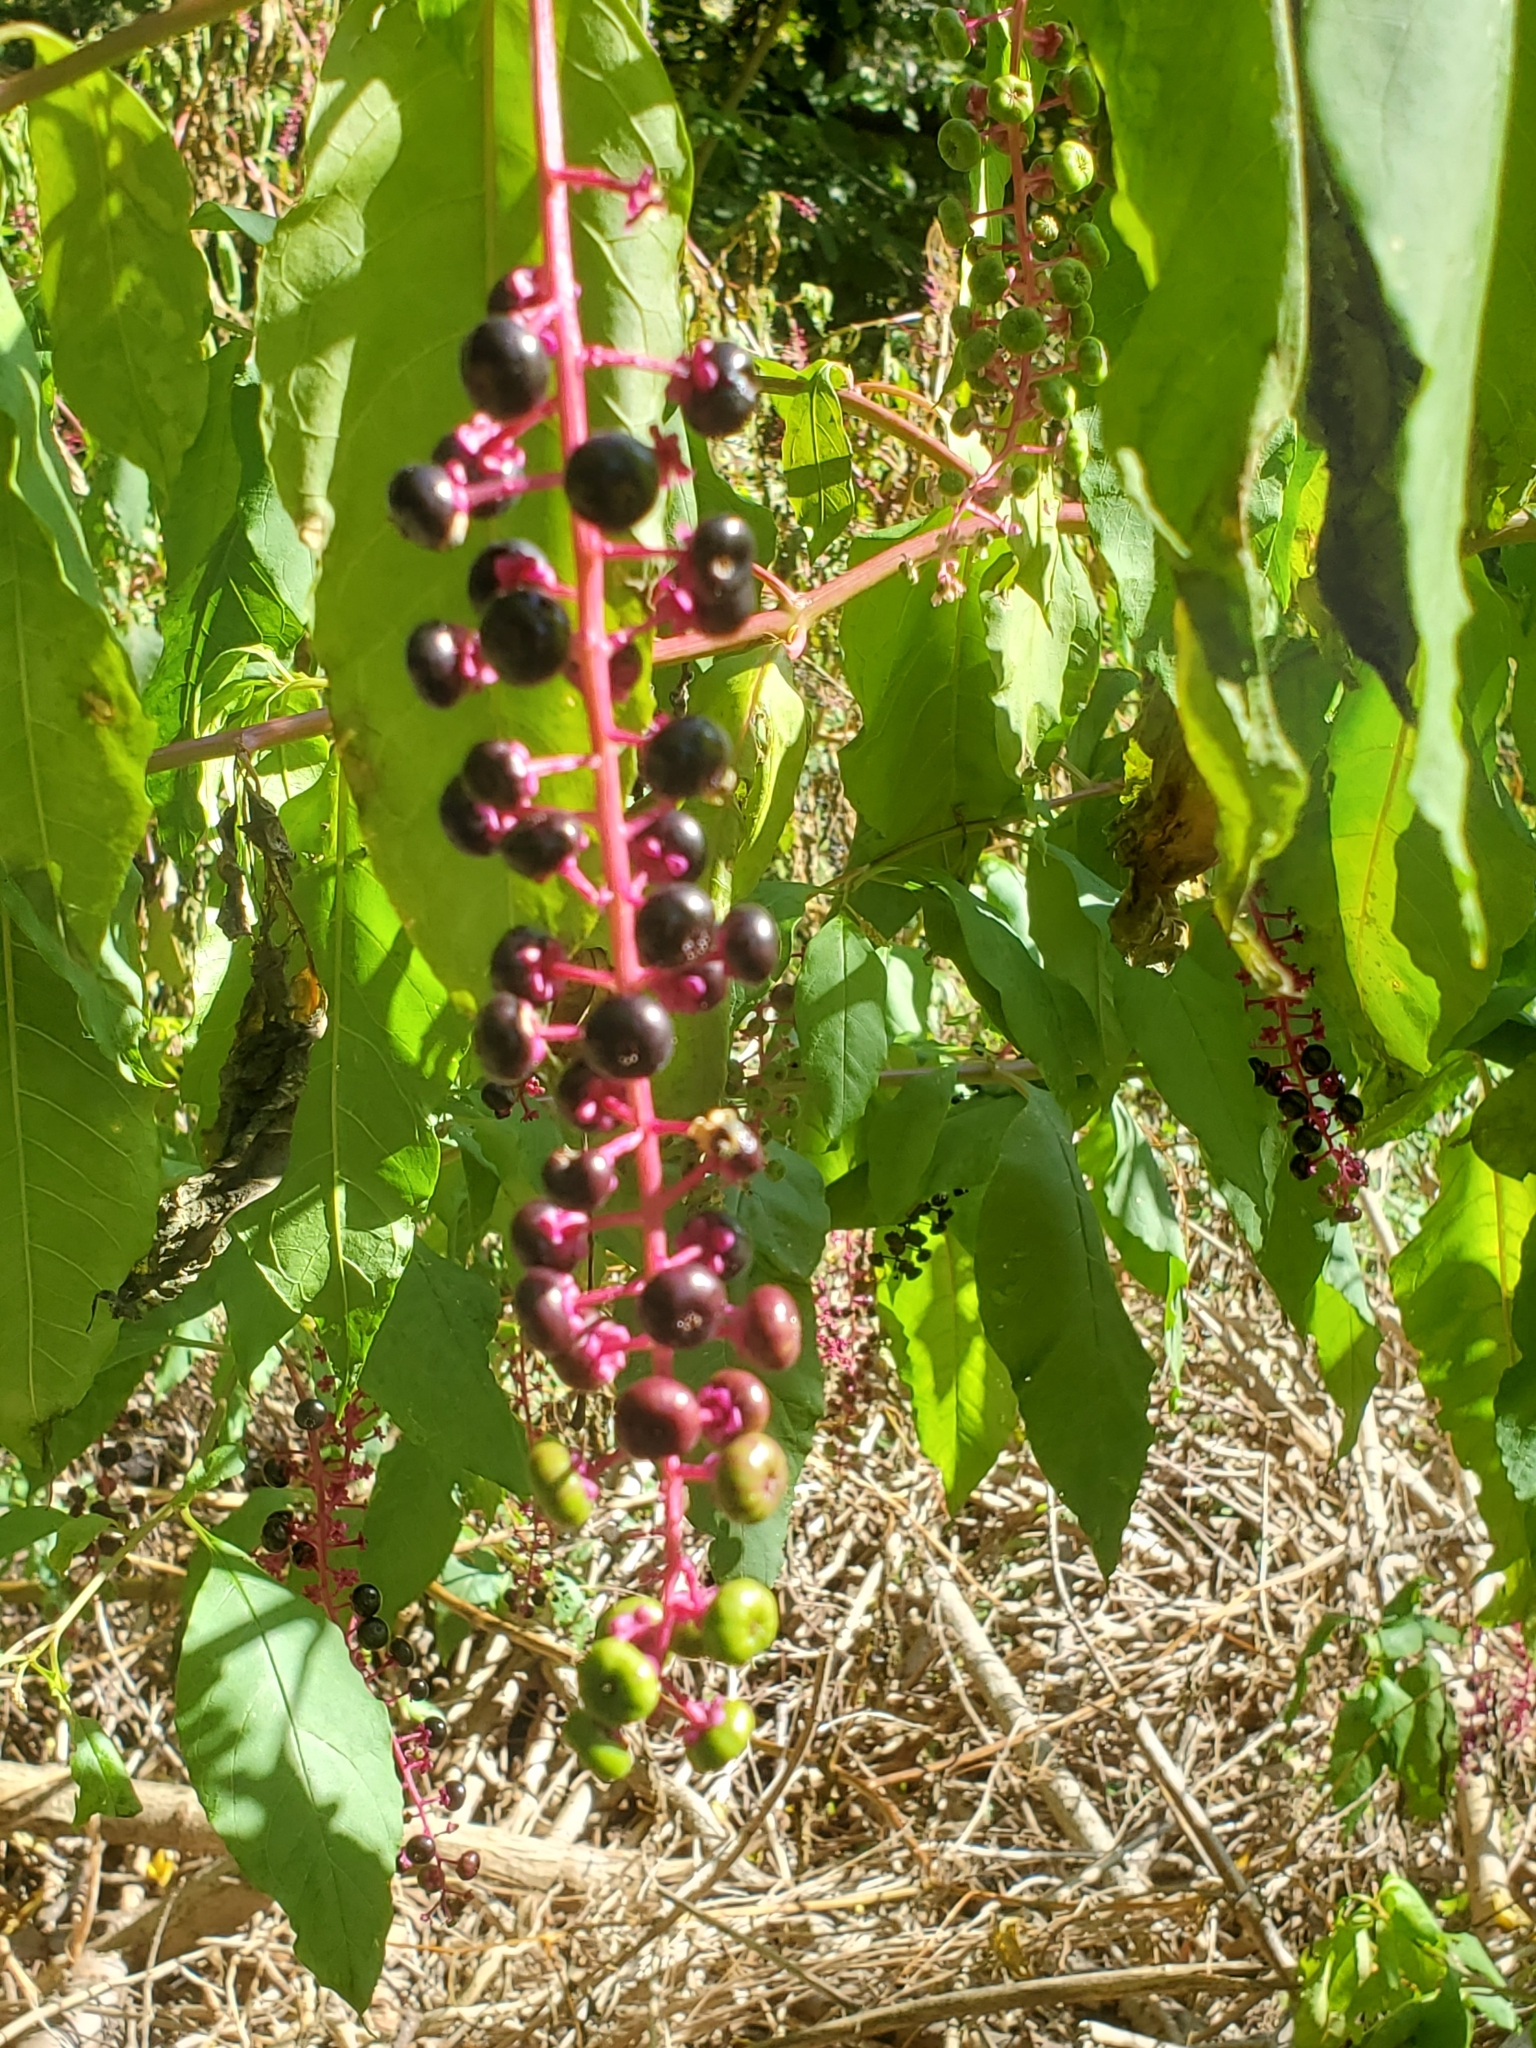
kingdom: Plantae
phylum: Tracheophyta
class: Magnoliopsida
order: Caryophyllales
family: Phytolaccaceae
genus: Phytolacca
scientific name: Phytolacca americana
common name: American pokeweed
